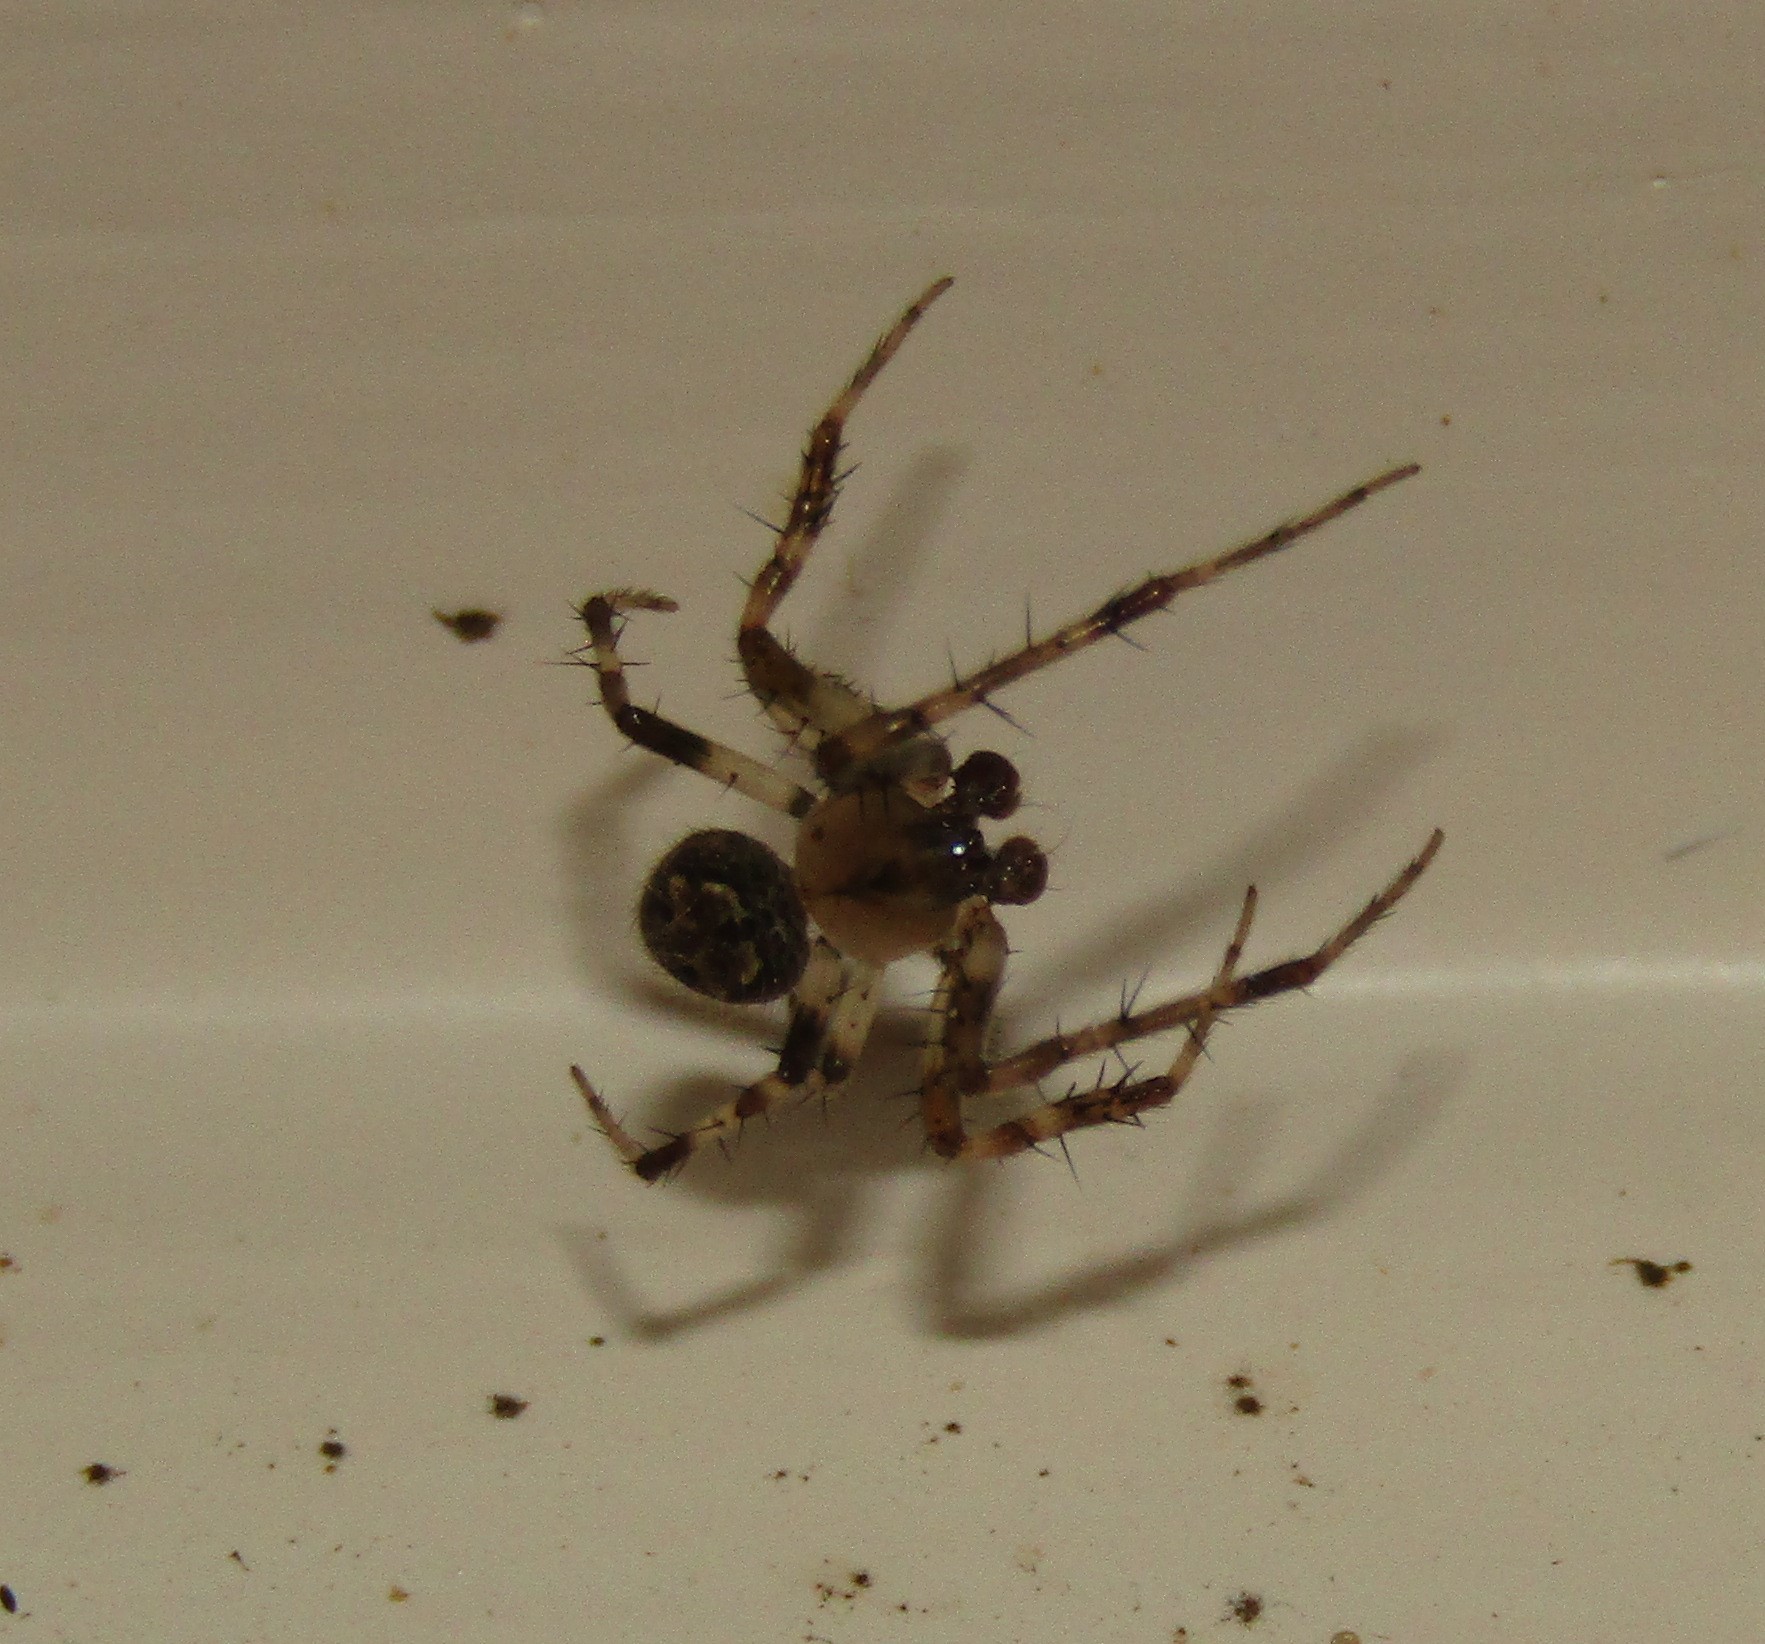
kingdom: Animalia
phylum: Arthropoda
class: Arachnida
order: Araneae
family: Araneidae
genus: Araneus
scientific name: Araneus pegnia
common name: Orb weavers
